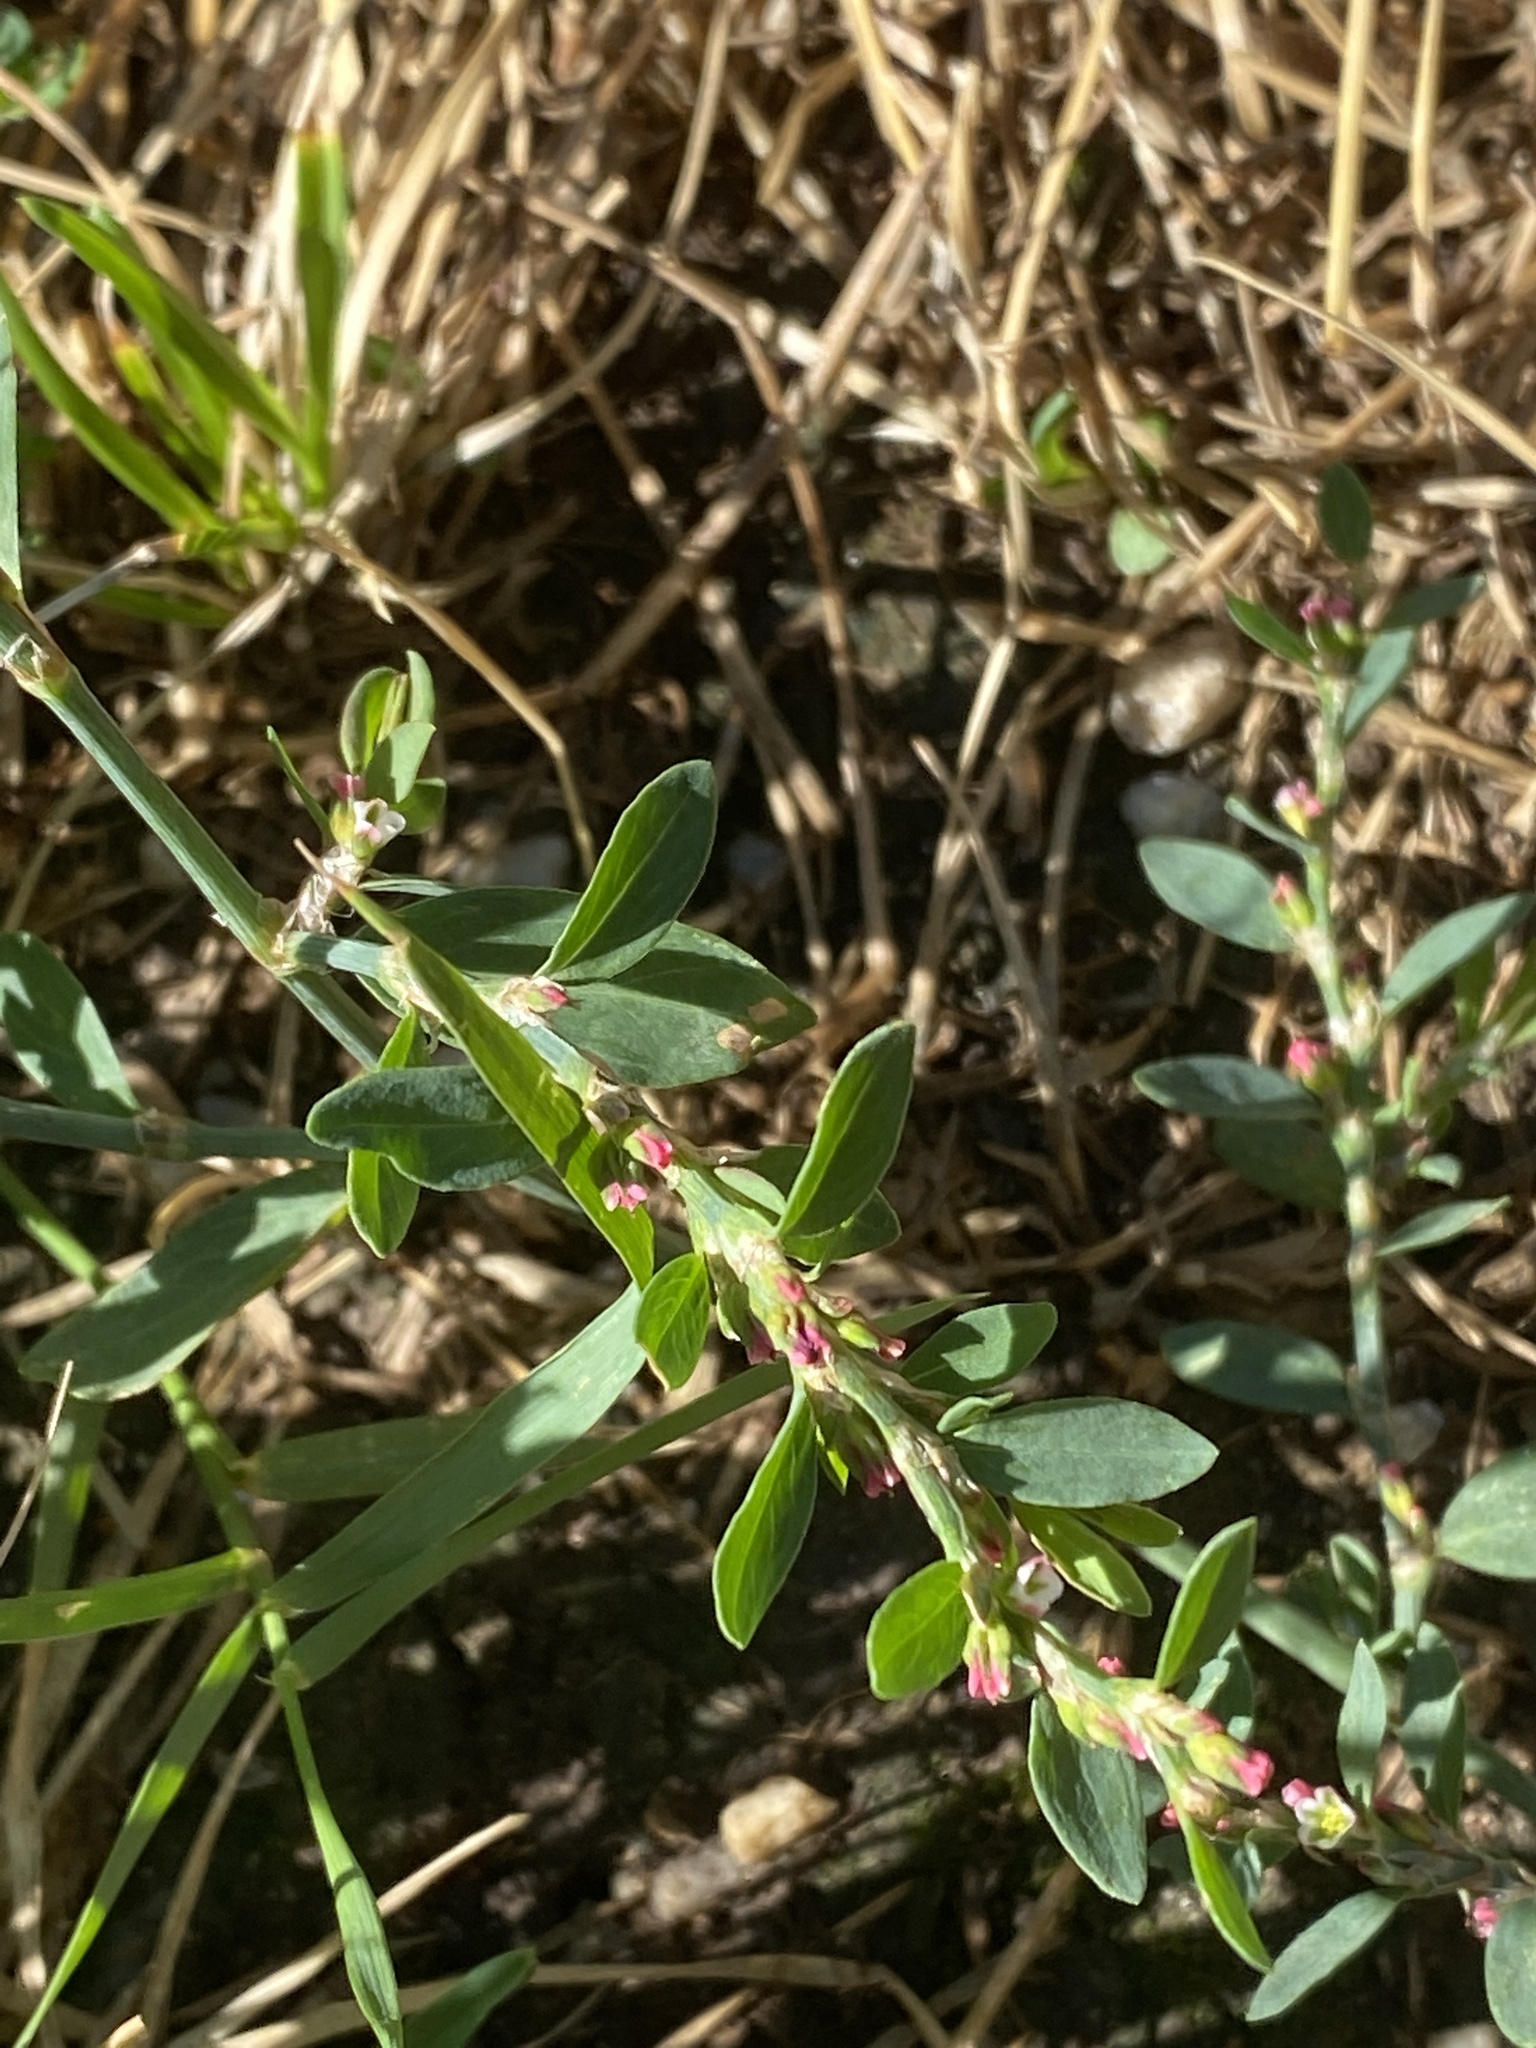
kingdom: Plantae
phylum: Tracheophyta
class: Magnoliopsida
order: Caryophyllales
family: Polygonaceae
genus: Polygonum
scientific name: Polygonum
